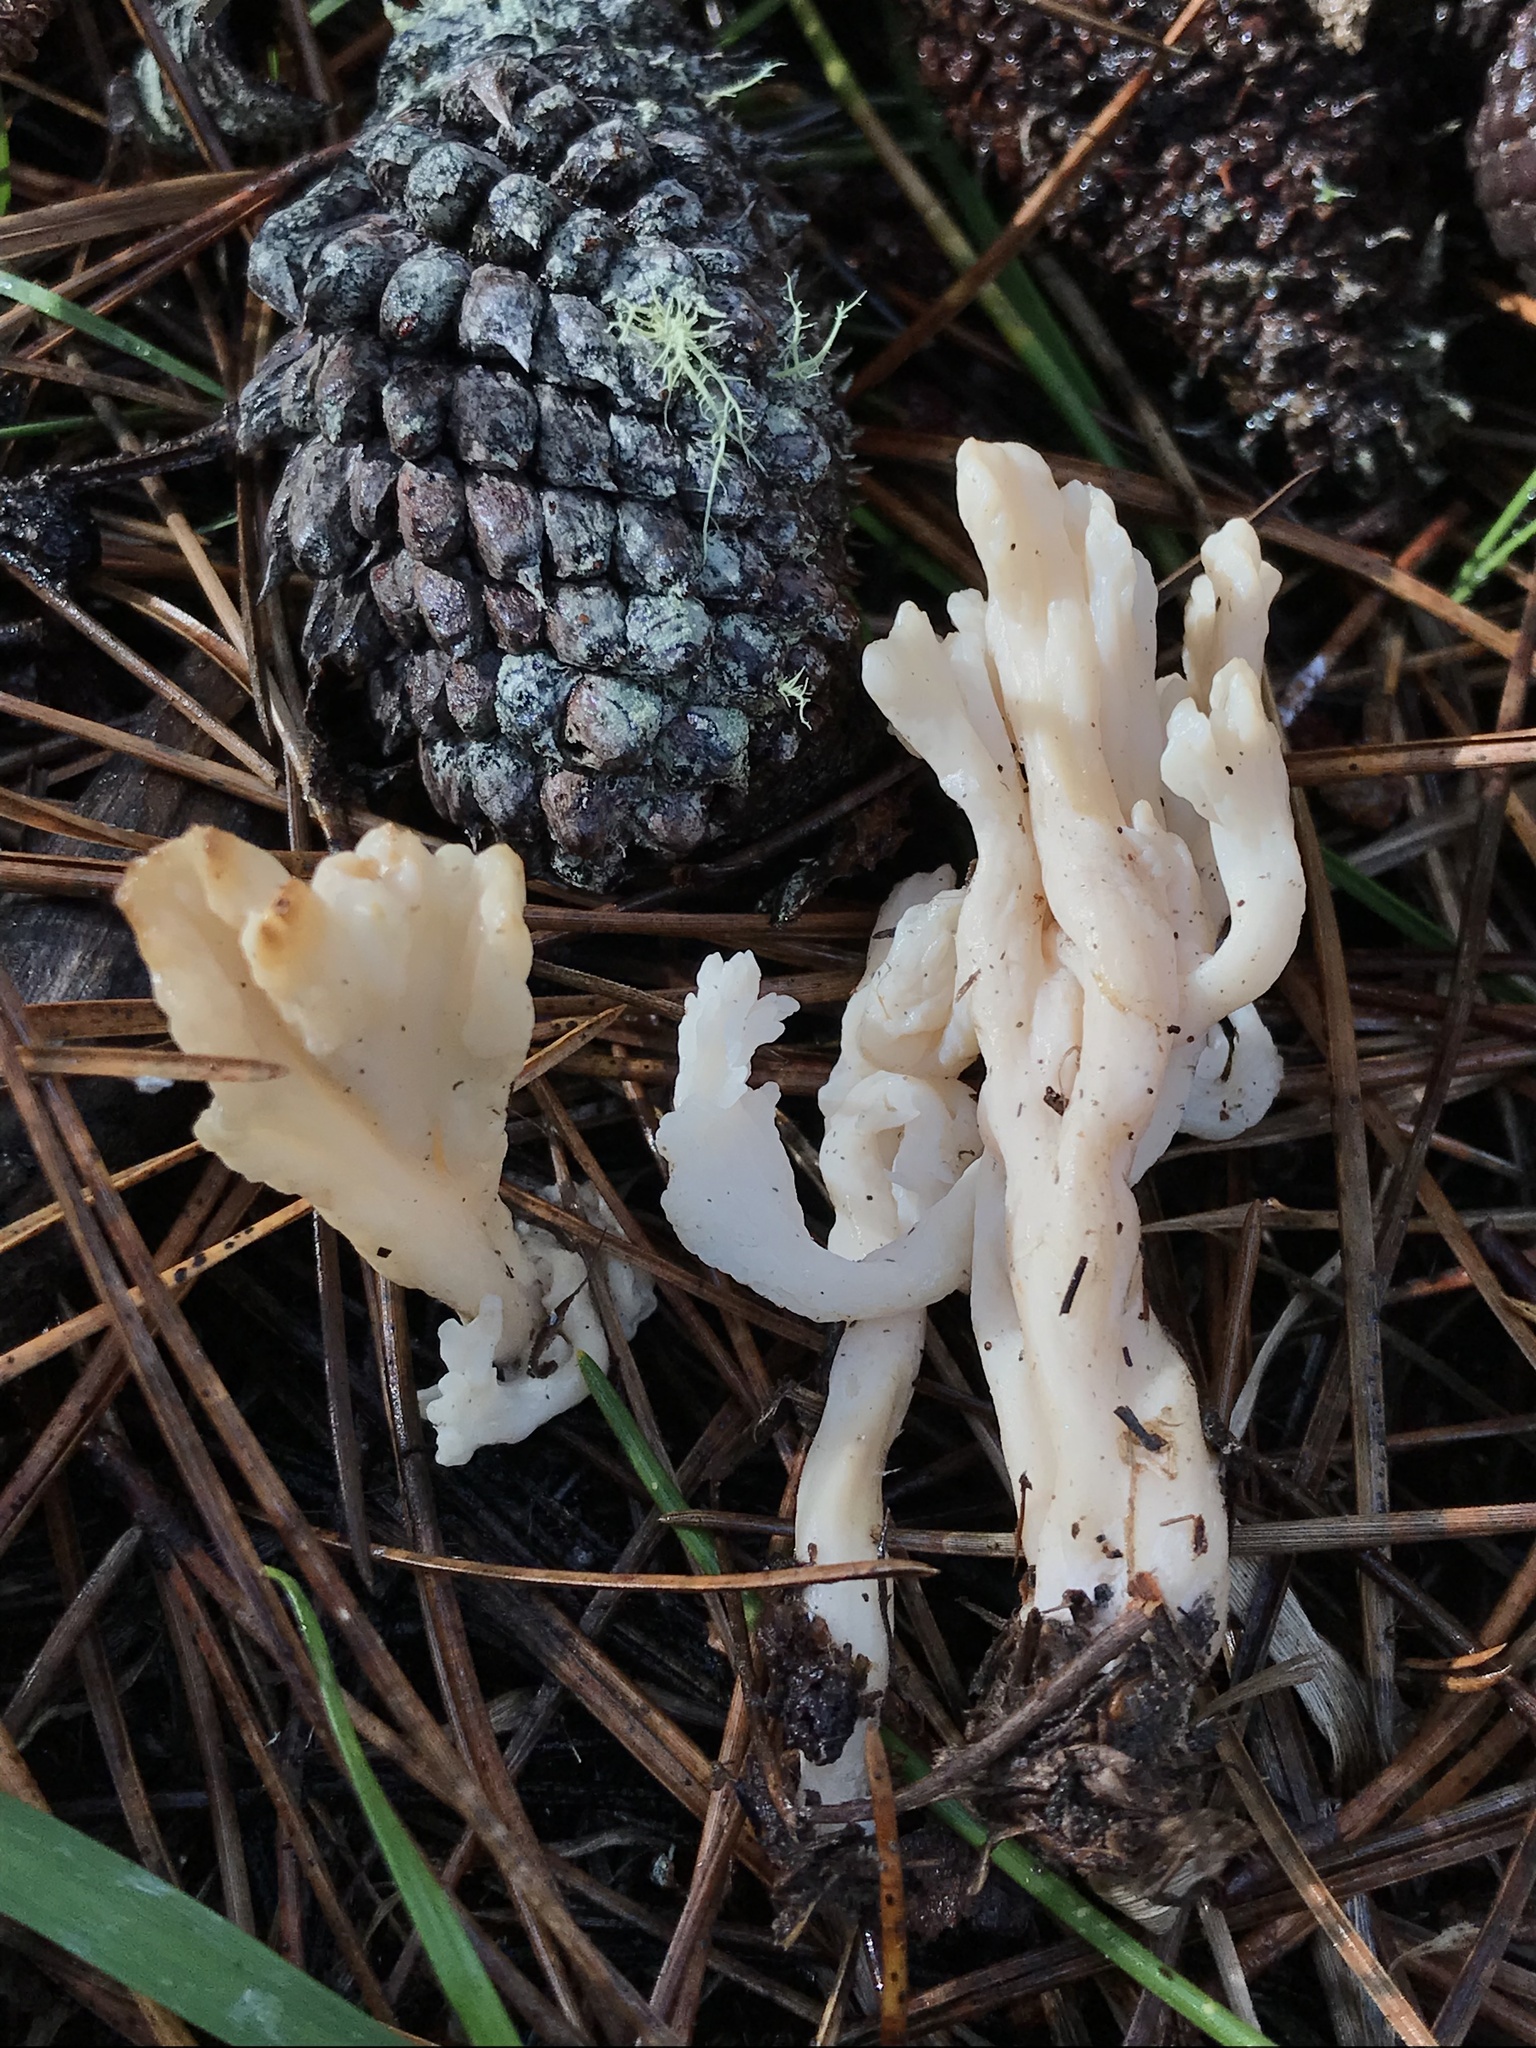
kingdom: Fungi
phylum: Basidiomycota
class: Agaricomycetes
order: Cantharellales
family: Hydnaceae
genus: Clavulina
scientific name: Clavulina rugosa
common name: Wrinkled club
